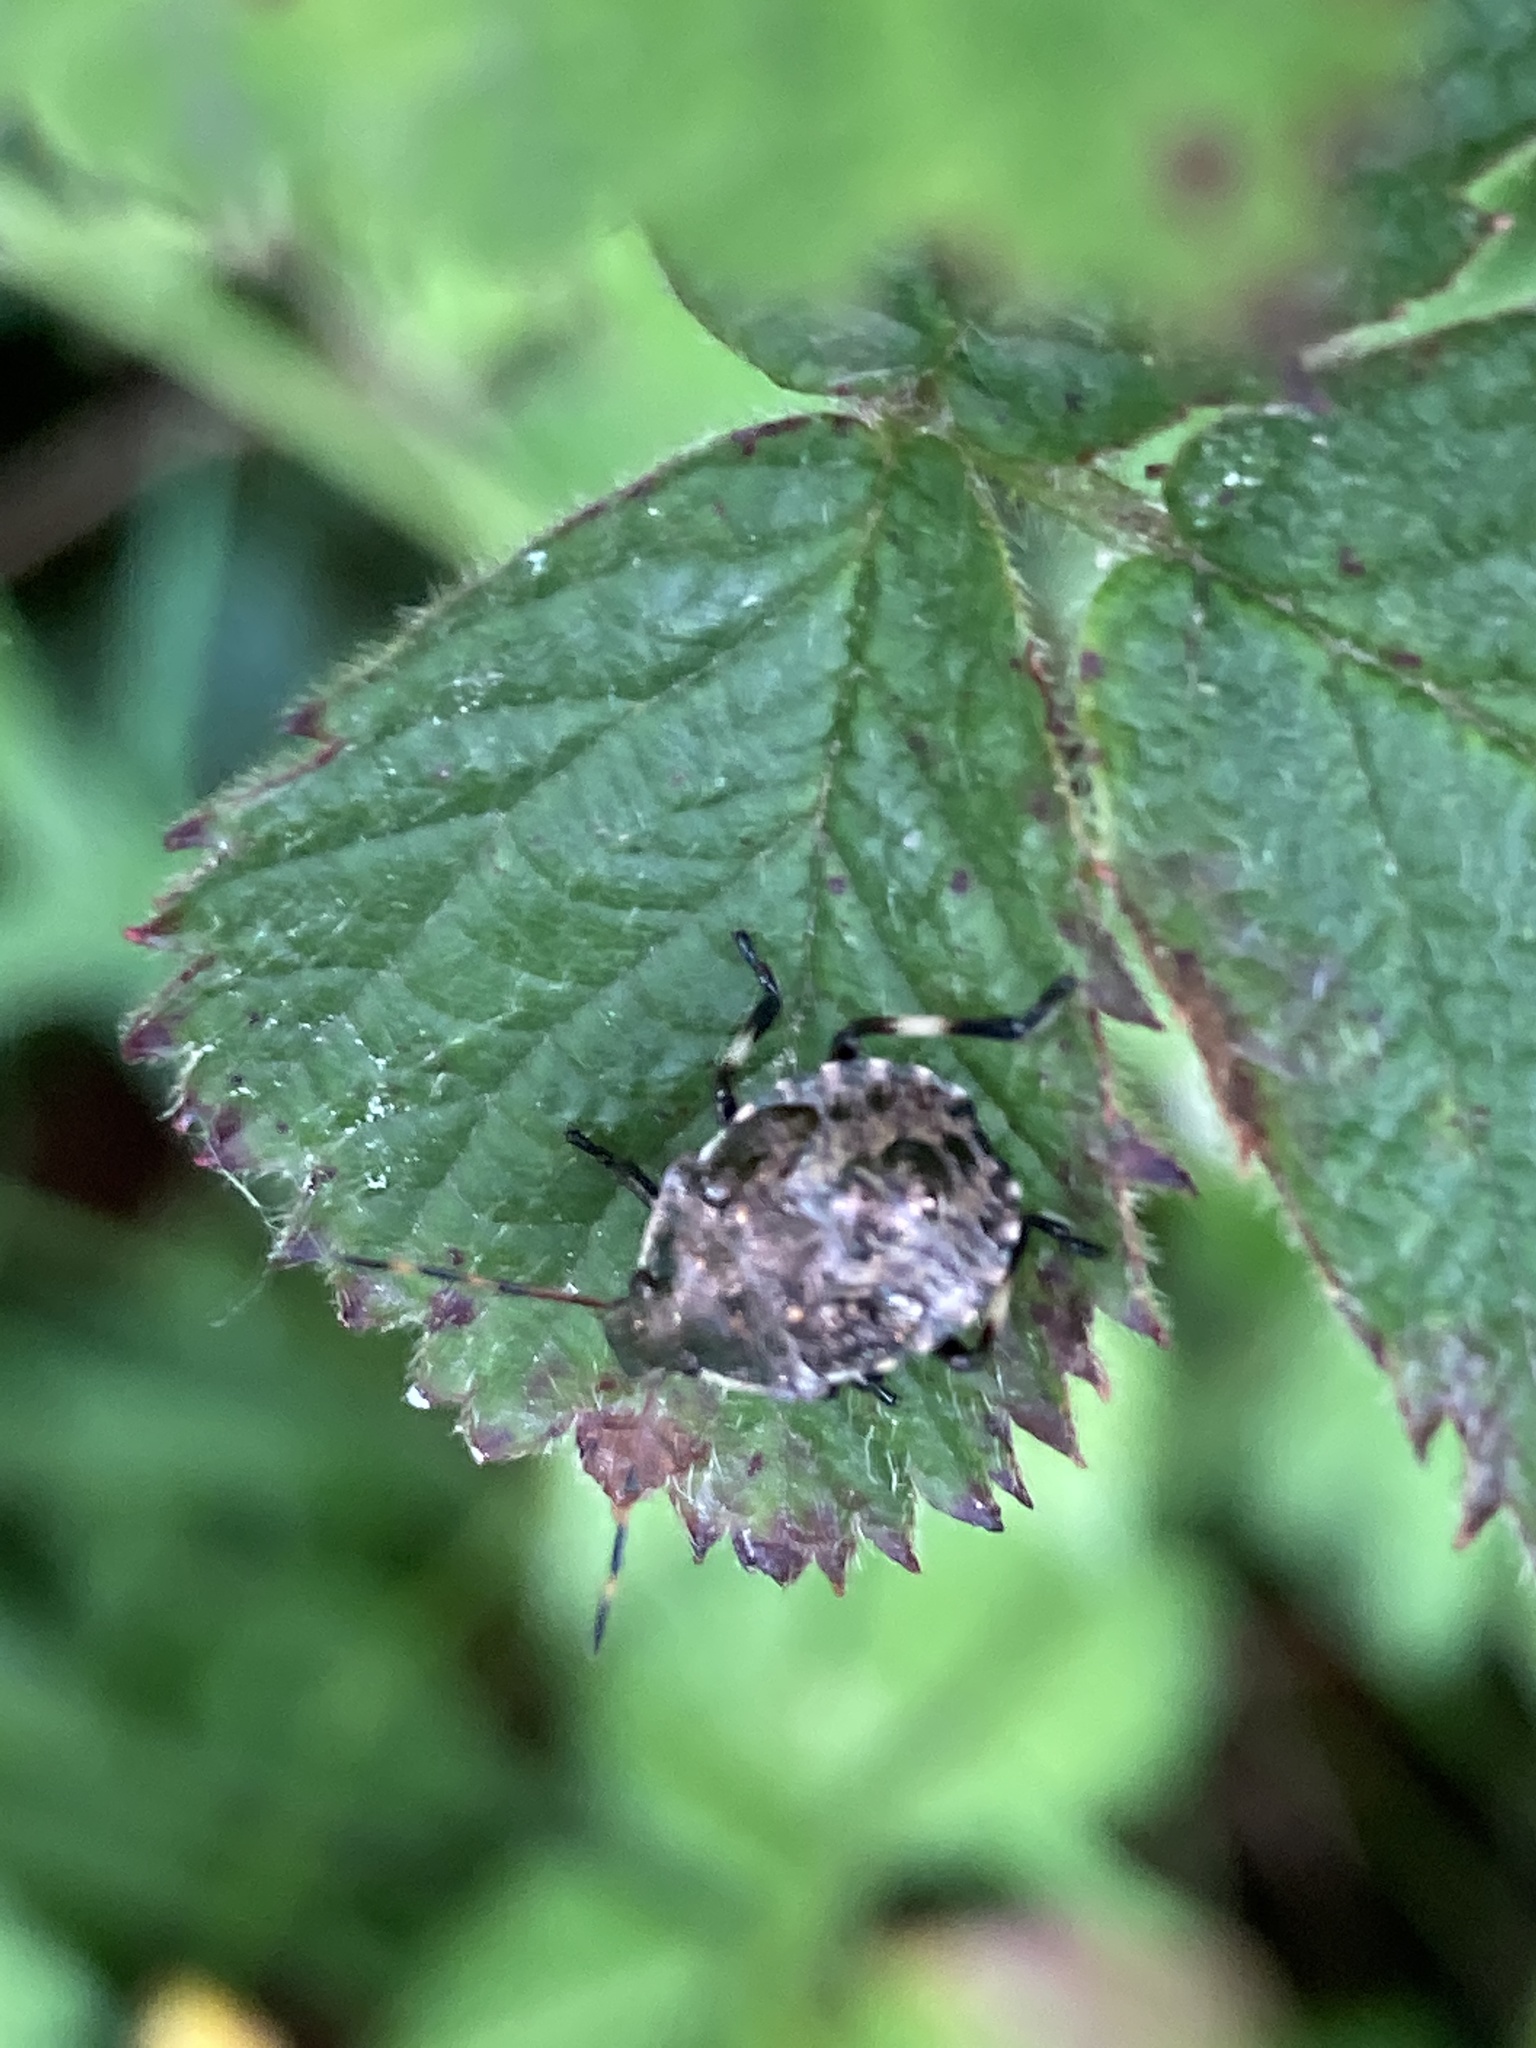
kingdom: Animalia
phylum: Arthropoda
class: Insecta
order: Hemiptera
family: Pentatomidae
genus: Picromerus
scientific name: Picromerus bidens
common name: Spiked shieldbug
